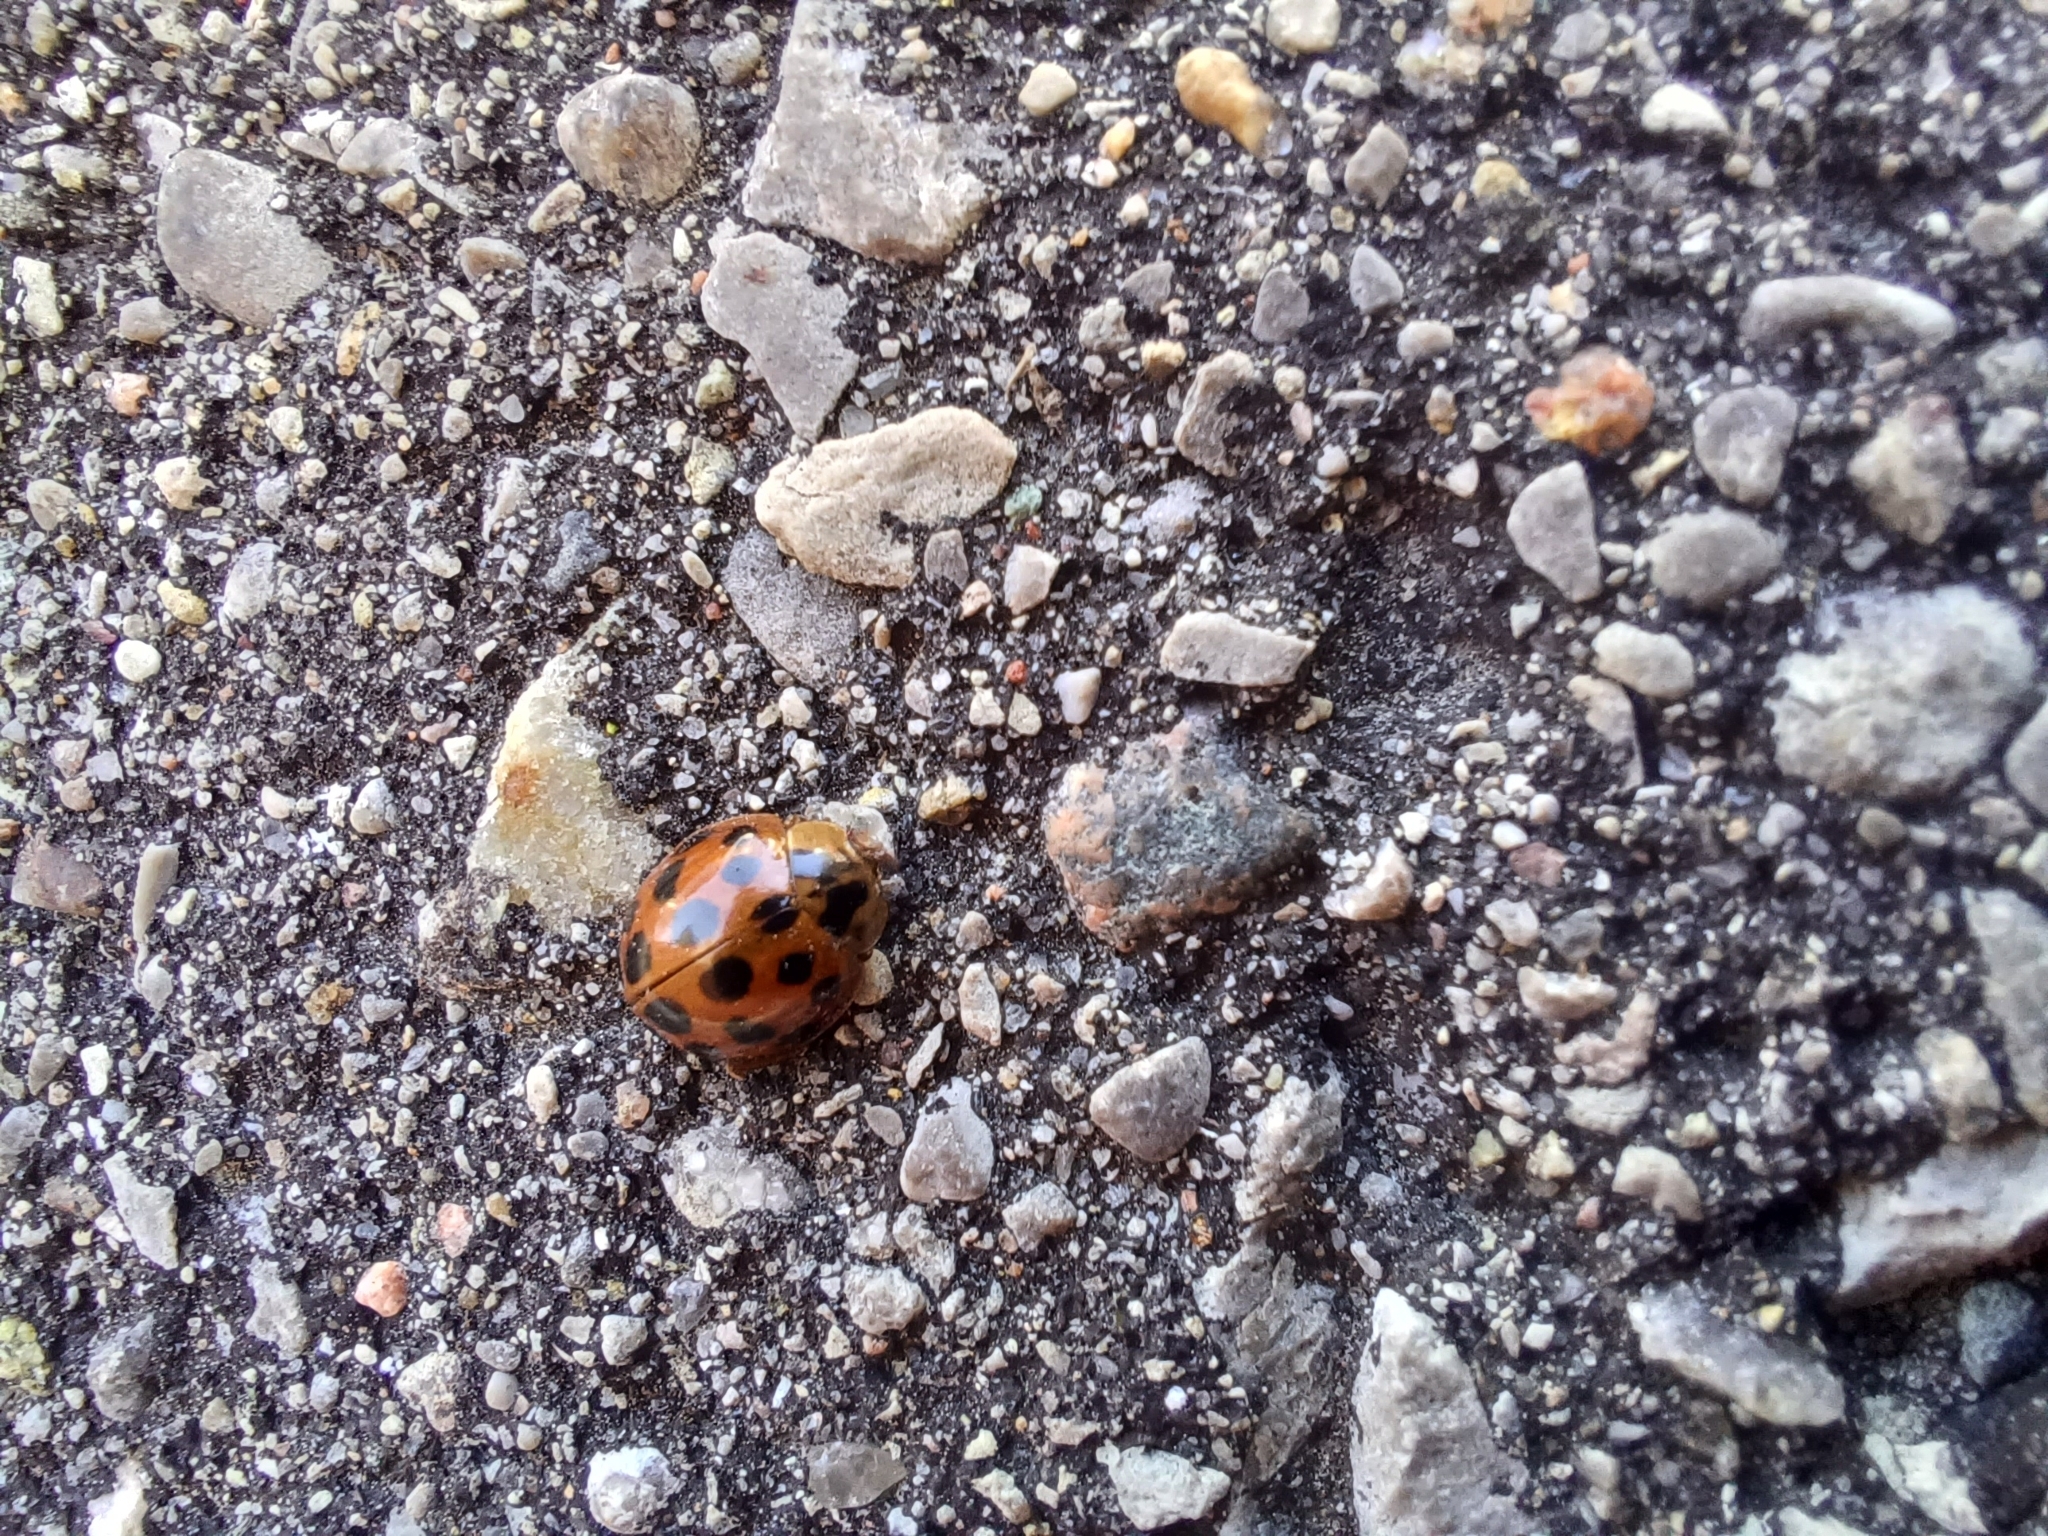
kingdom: Animalia
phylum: Arthropoda
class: Insecta
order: Coleoptera
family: Coccinellidae
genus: Harmonia
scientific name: Harmonia axyridis
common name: Harlequin ladybird
